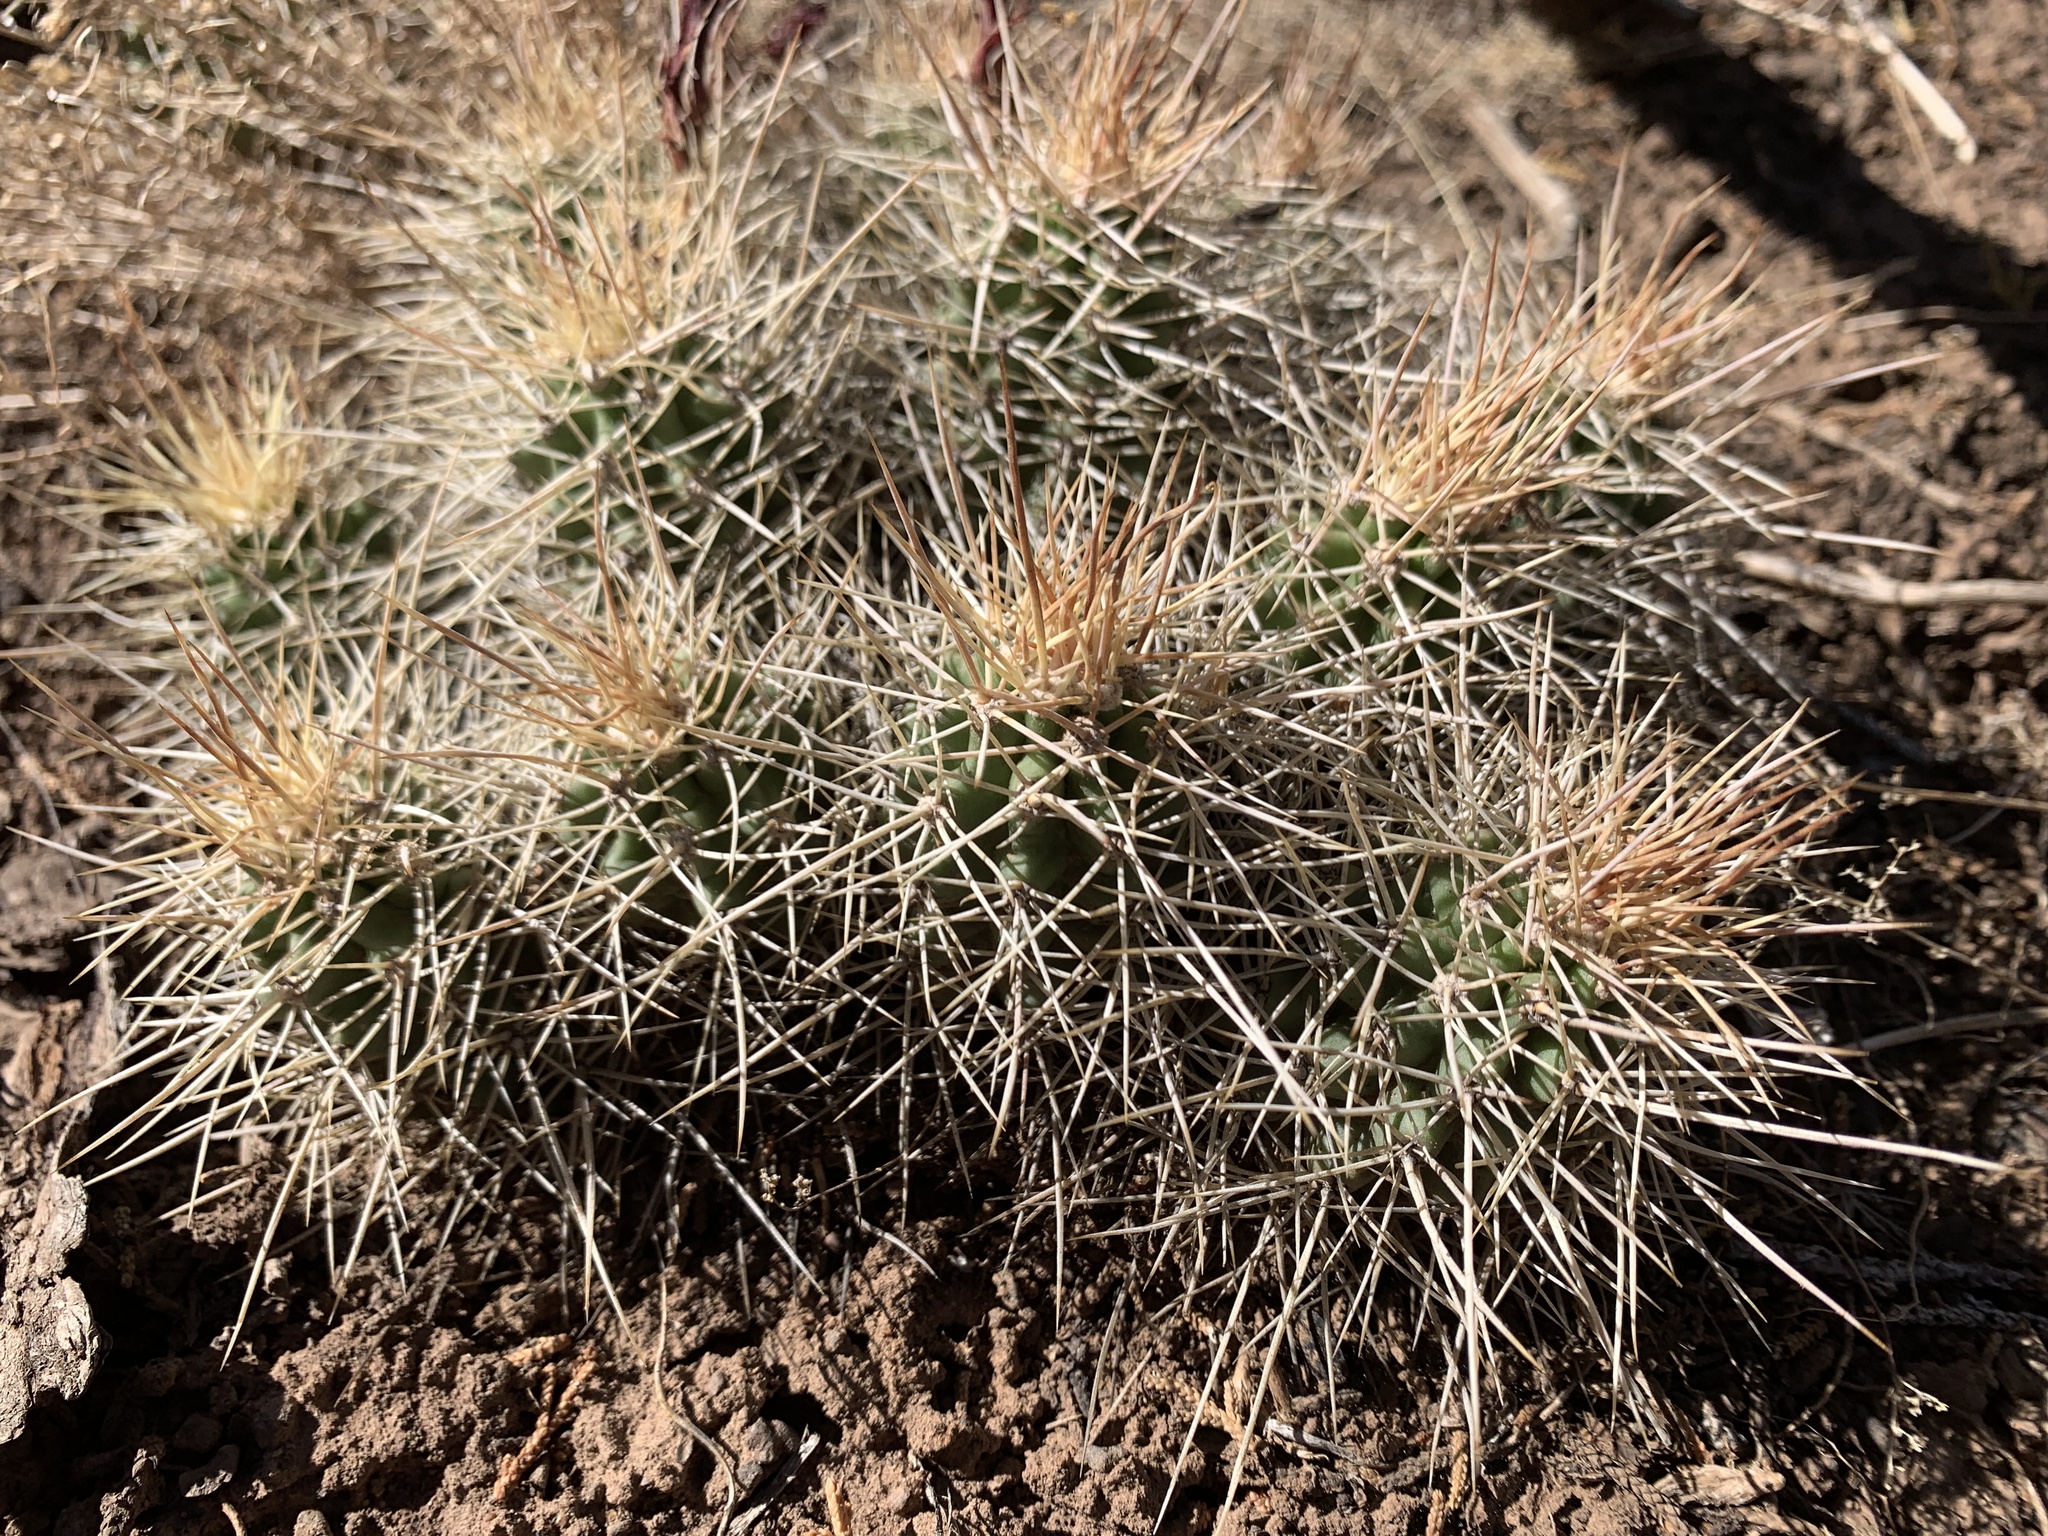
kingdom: Plantae
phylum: Tracheophyta
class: Magnoliopsida
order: Caryophyllales
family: Cactaceae
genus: Echinocereus
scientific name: Echinocereus triglochidiatus
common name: Claretcup hedgehog
